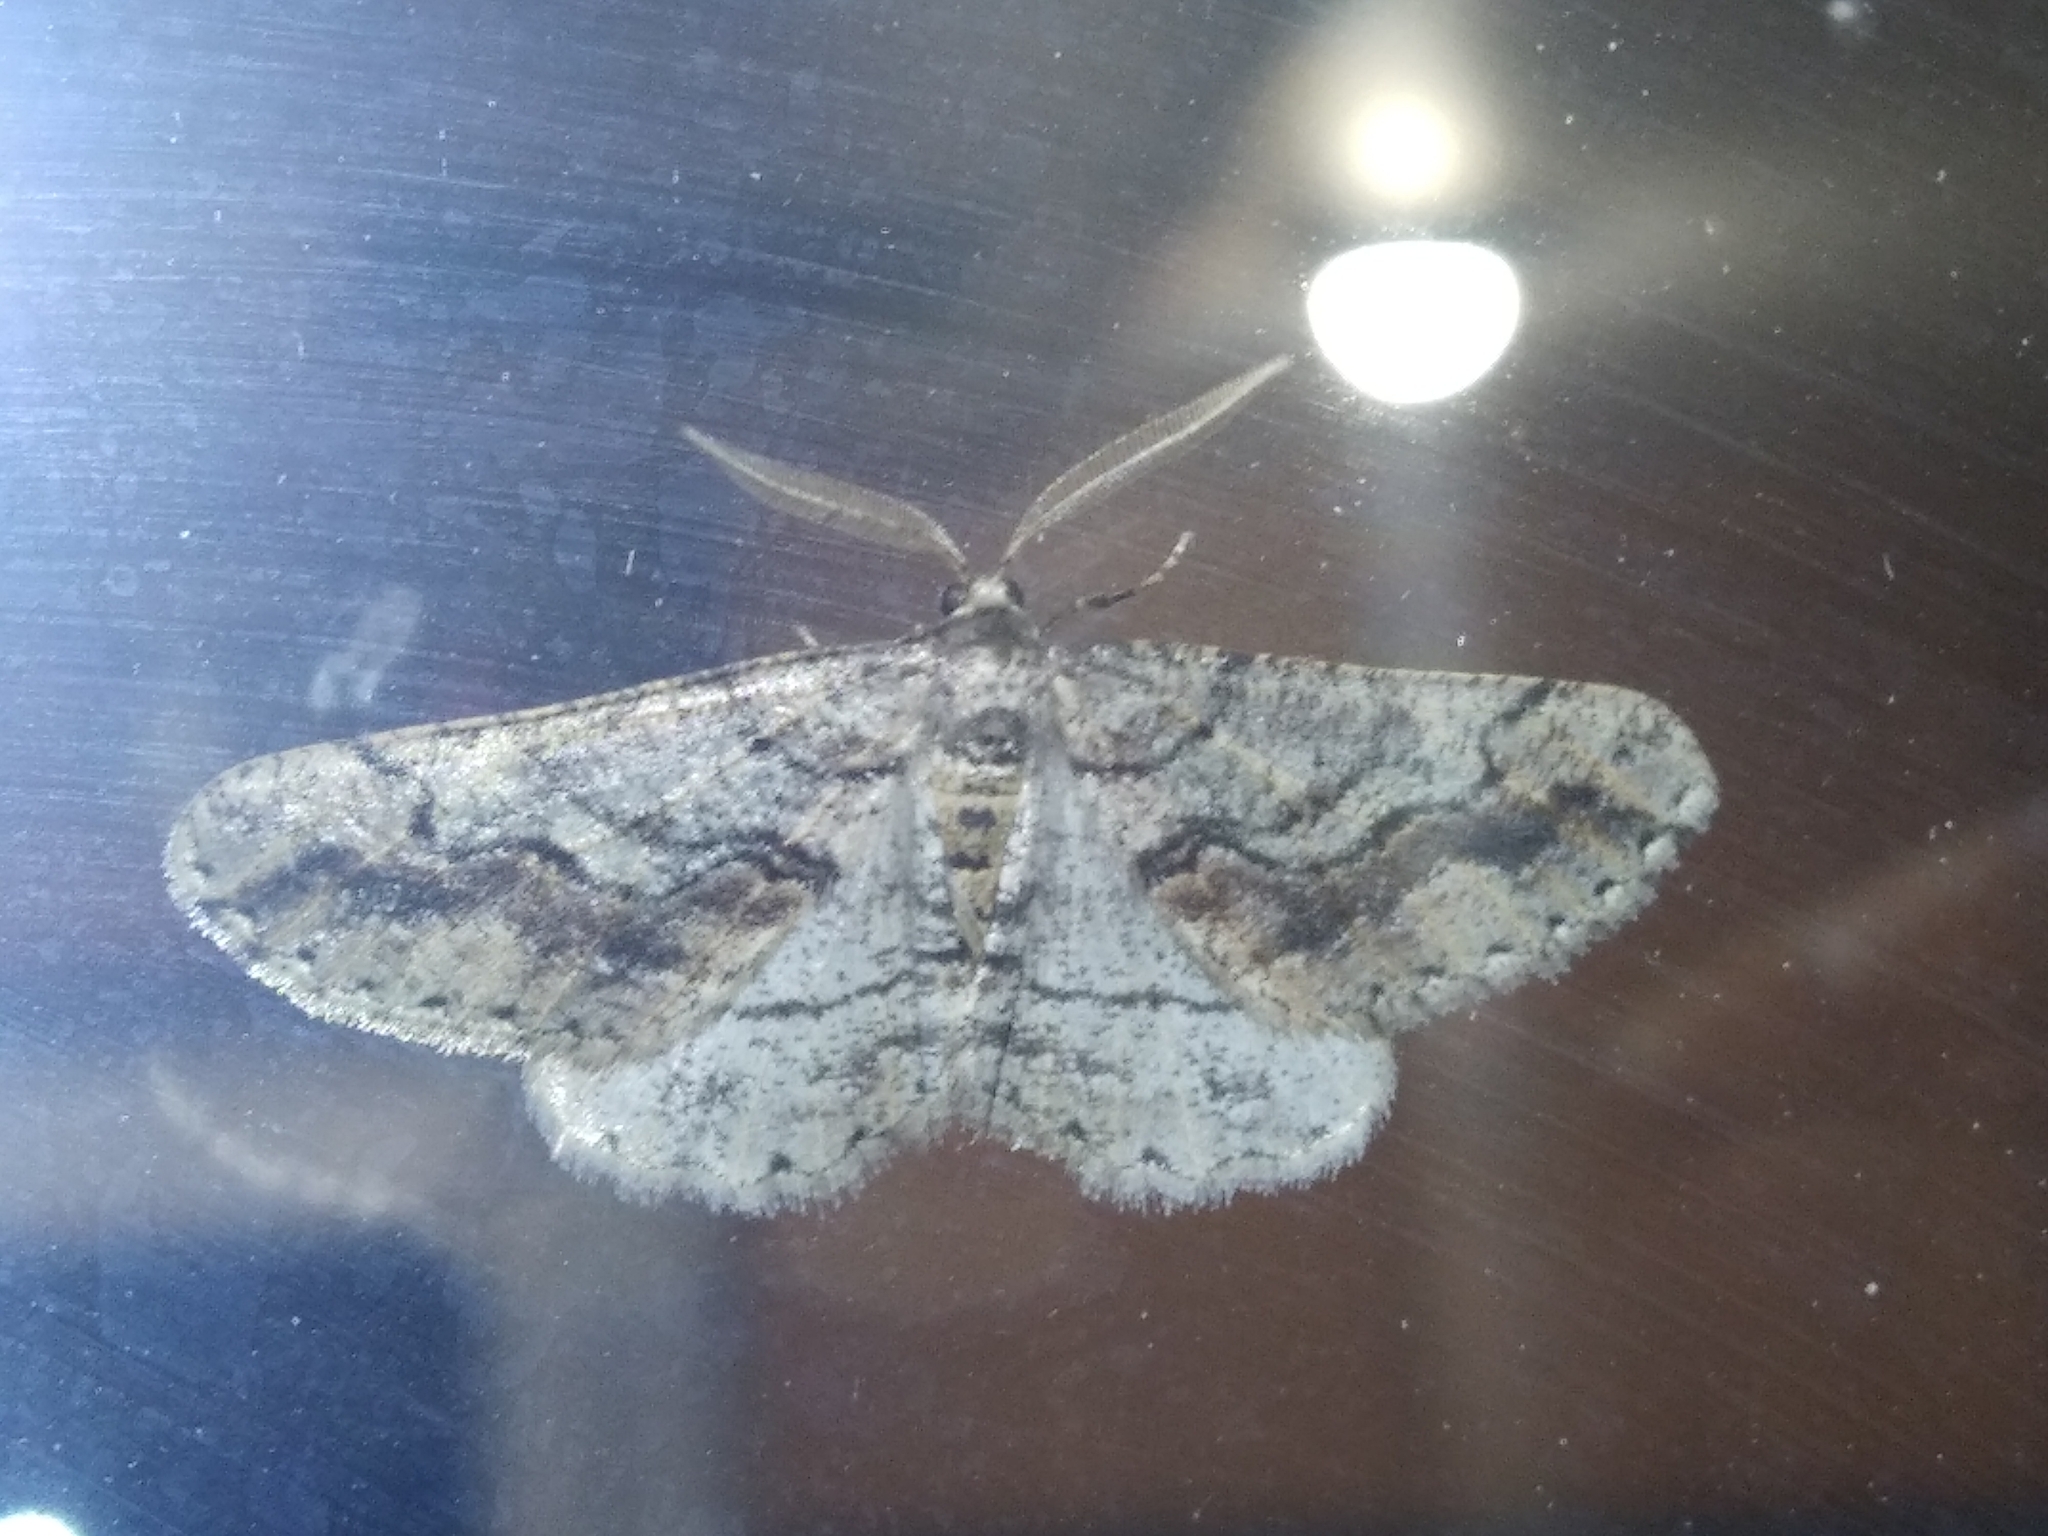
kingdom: Animalia
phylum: Arthropoda
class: Insecta
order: Lepidoptera
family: Geometridae
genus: Agriopis
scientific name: Agriopis bajaria
